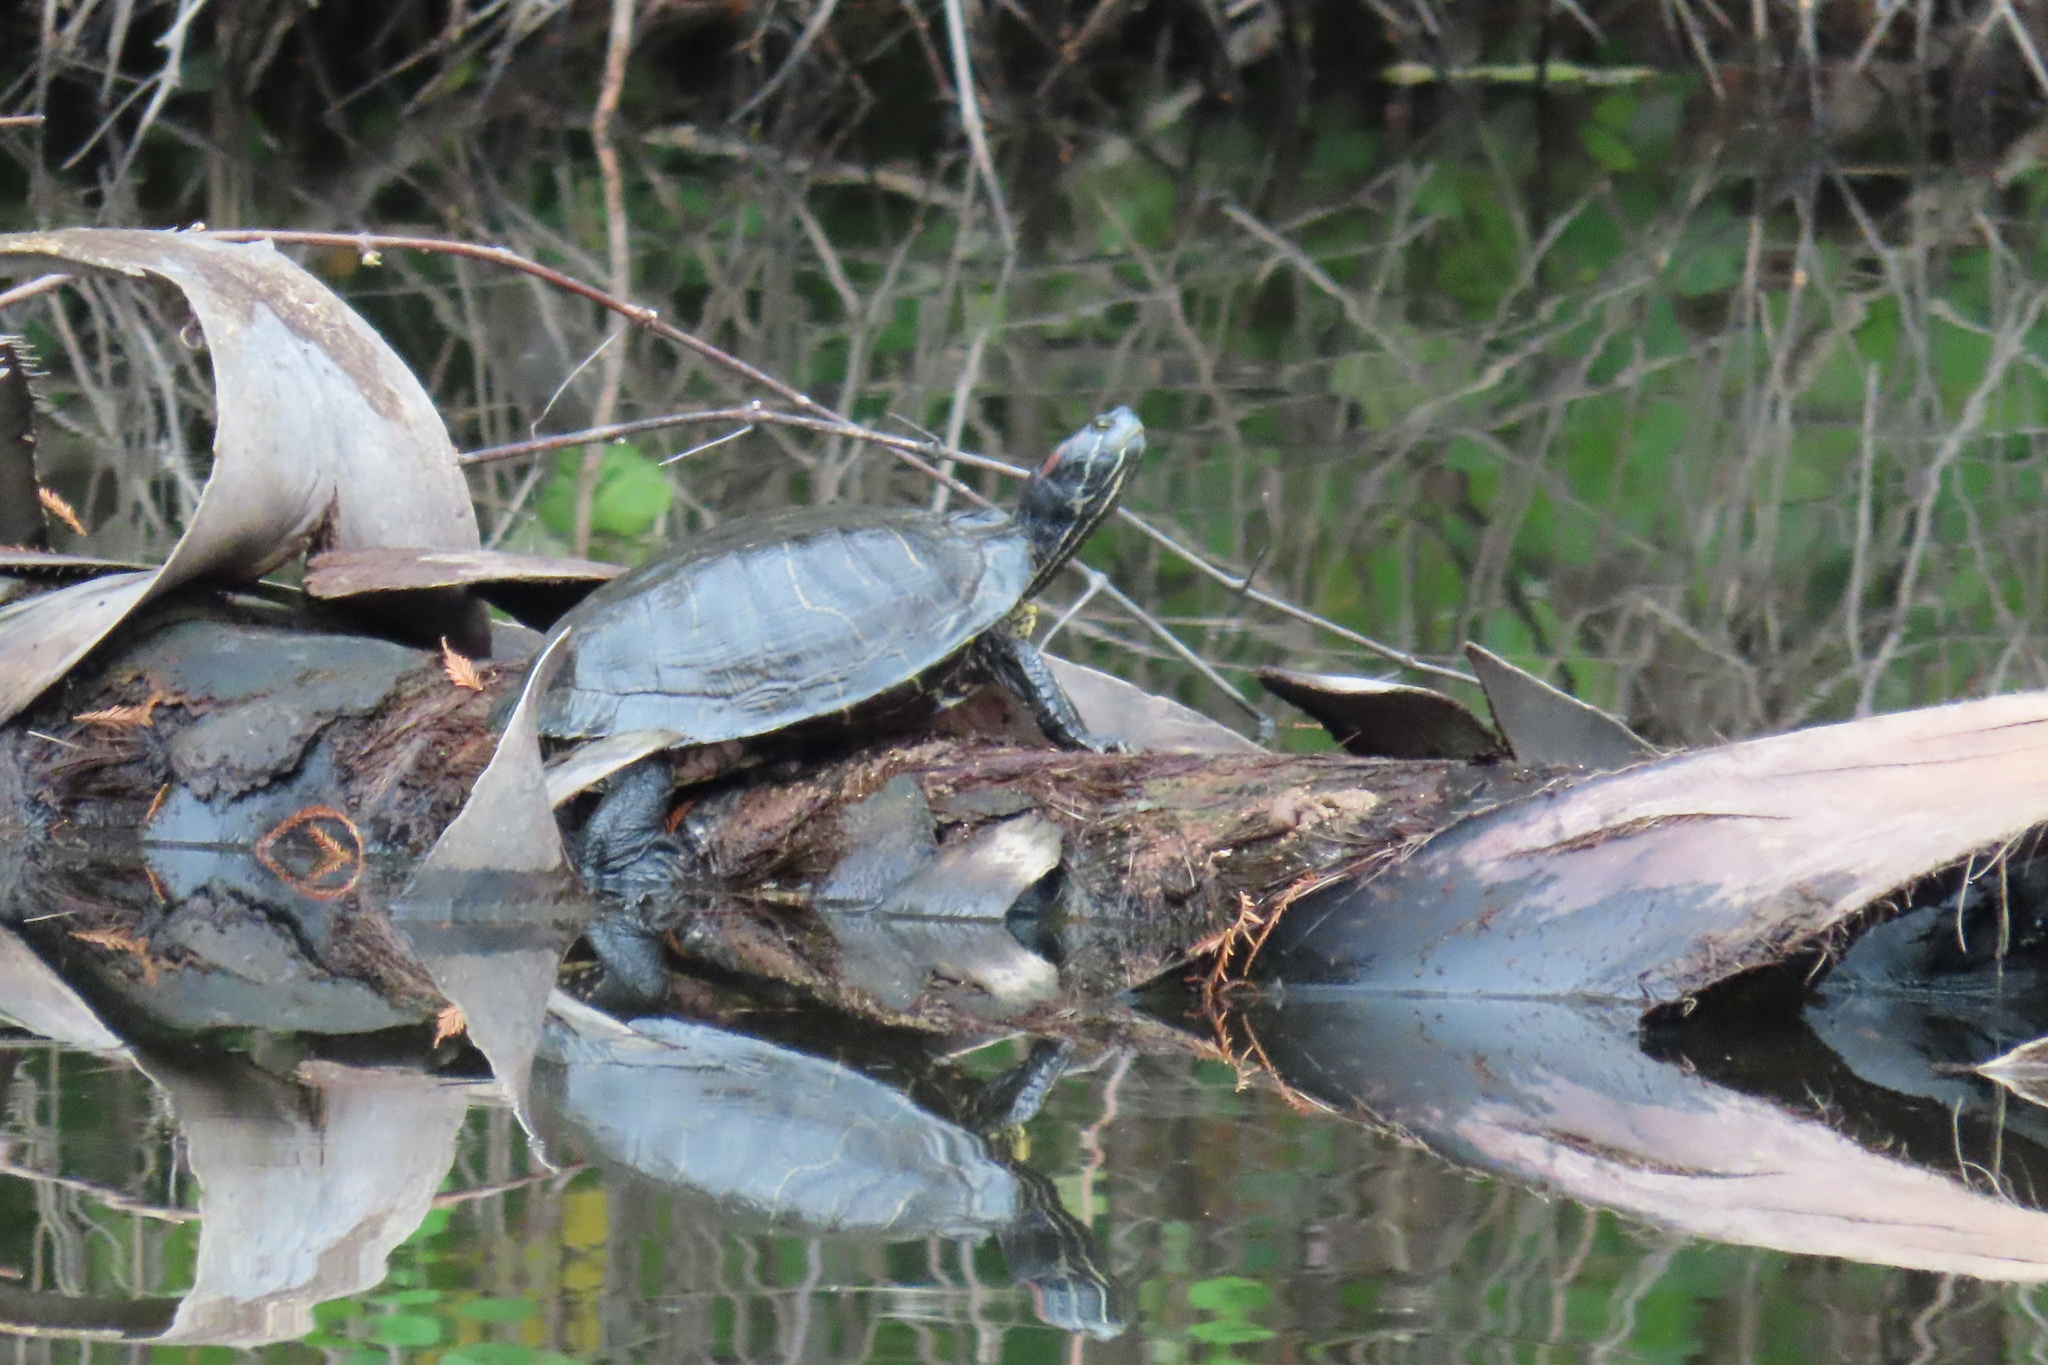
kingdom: Animalia
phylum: Chordata
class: Testudines
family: Emydidae
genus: Trachemys
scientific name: Trachemys scripta
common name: Slider
